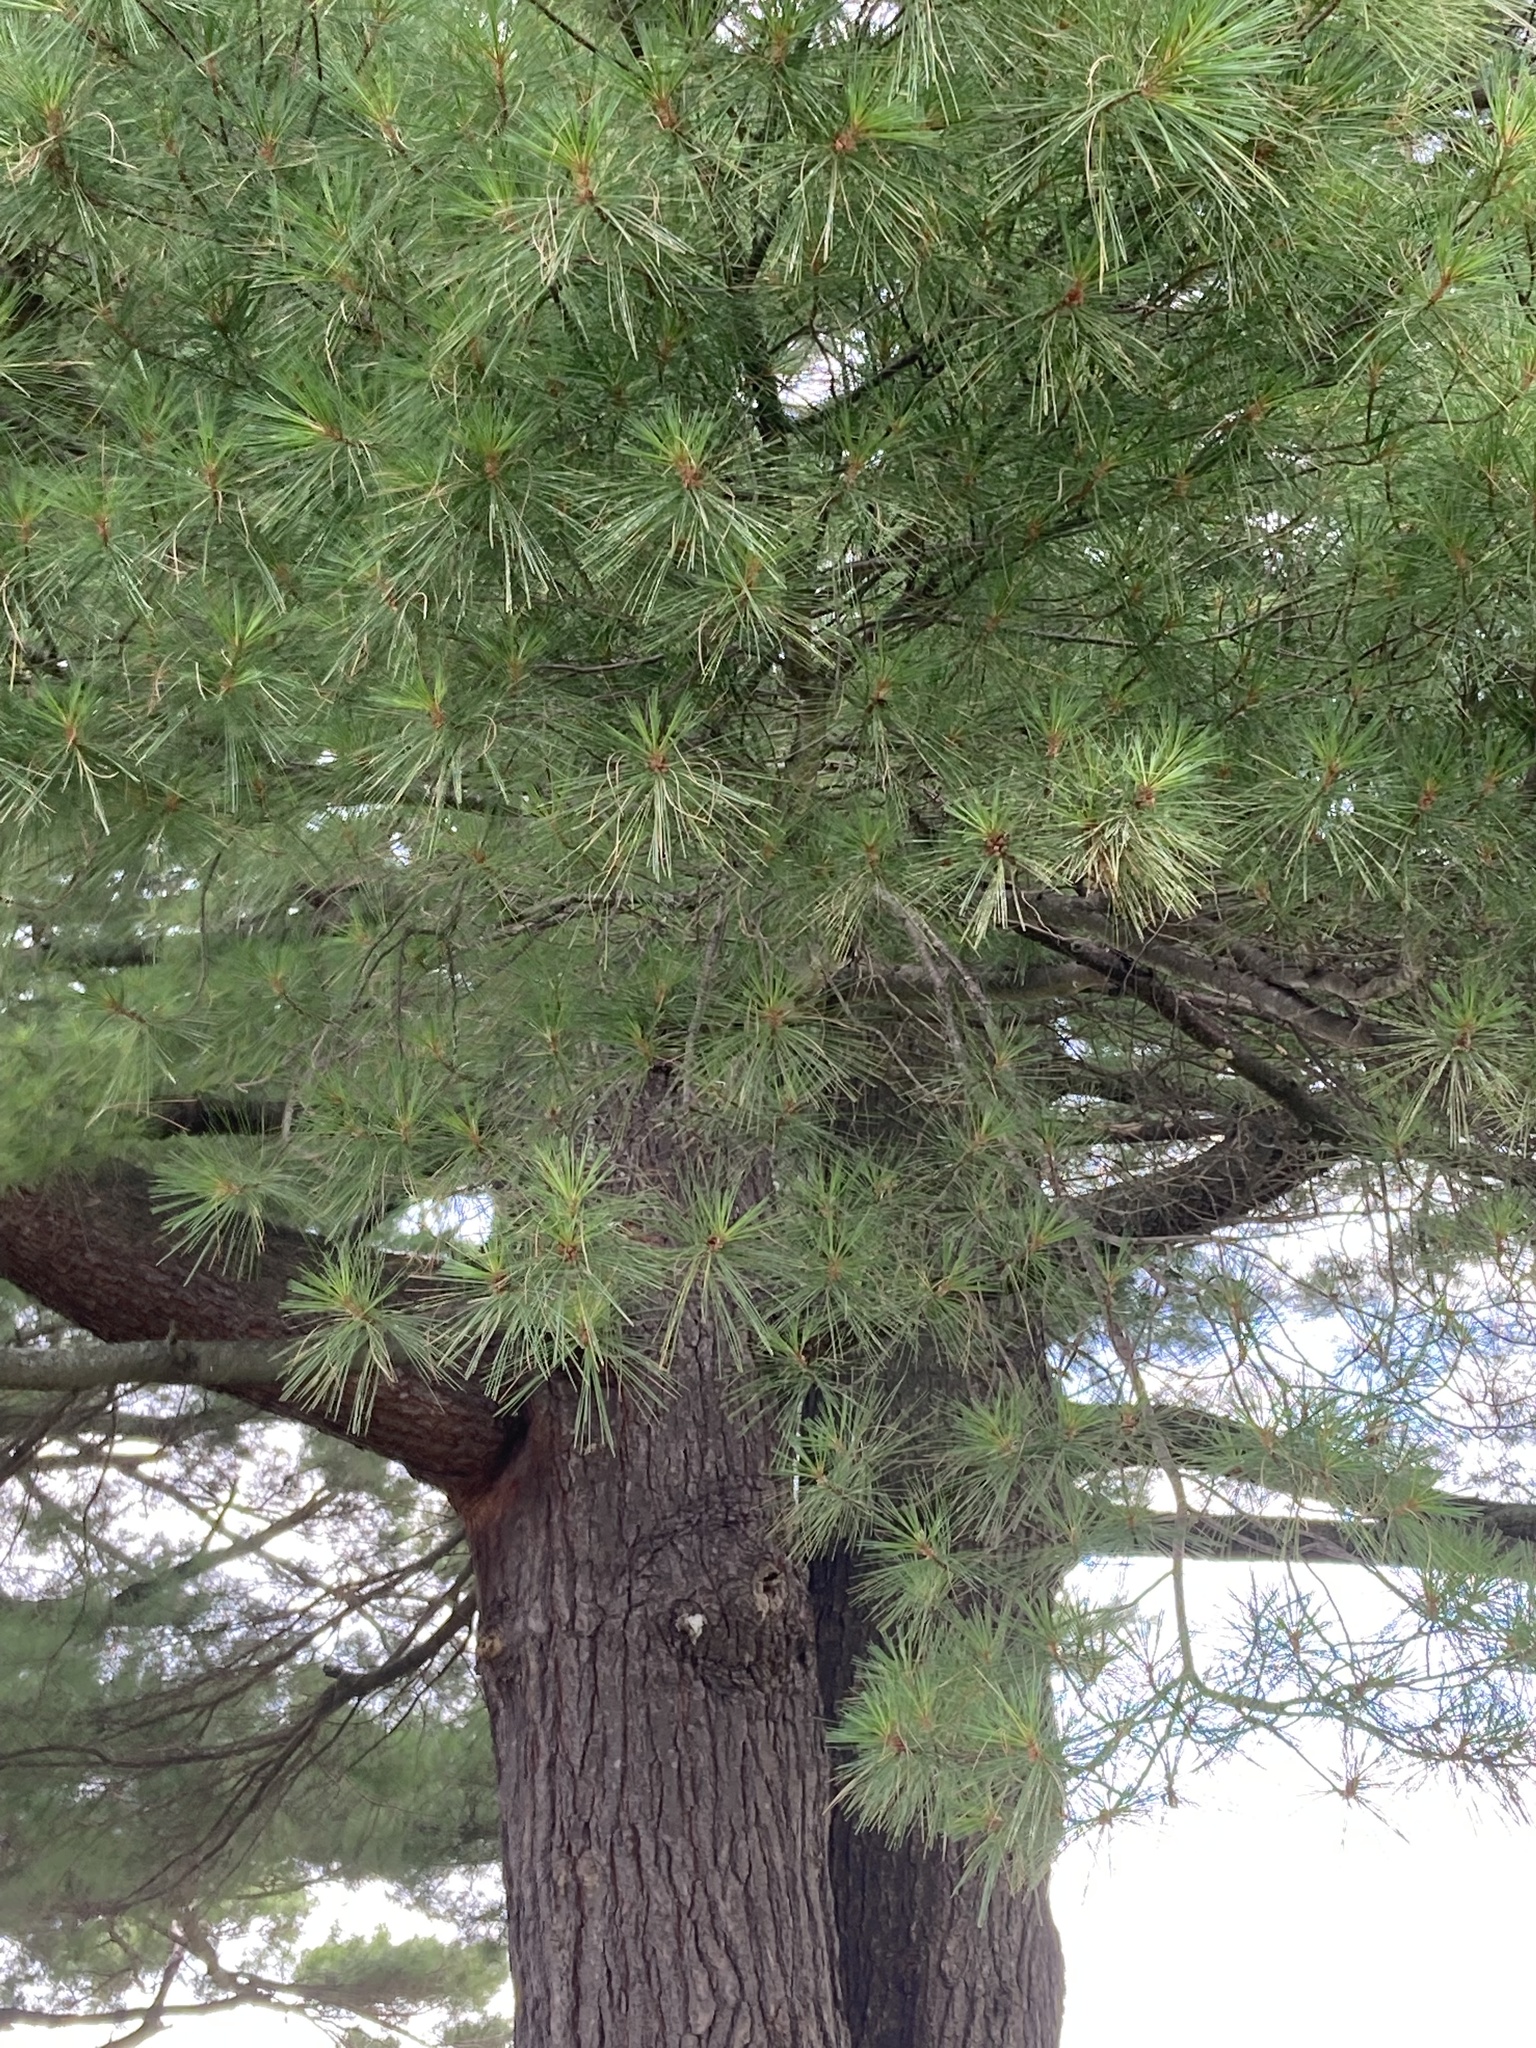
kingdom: Plantae
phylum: Tracheophyta
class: Pinopsida
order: Pinales
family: Pinaceae
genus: Pinus
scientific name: Pinus strobus
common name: Weymouth pine
